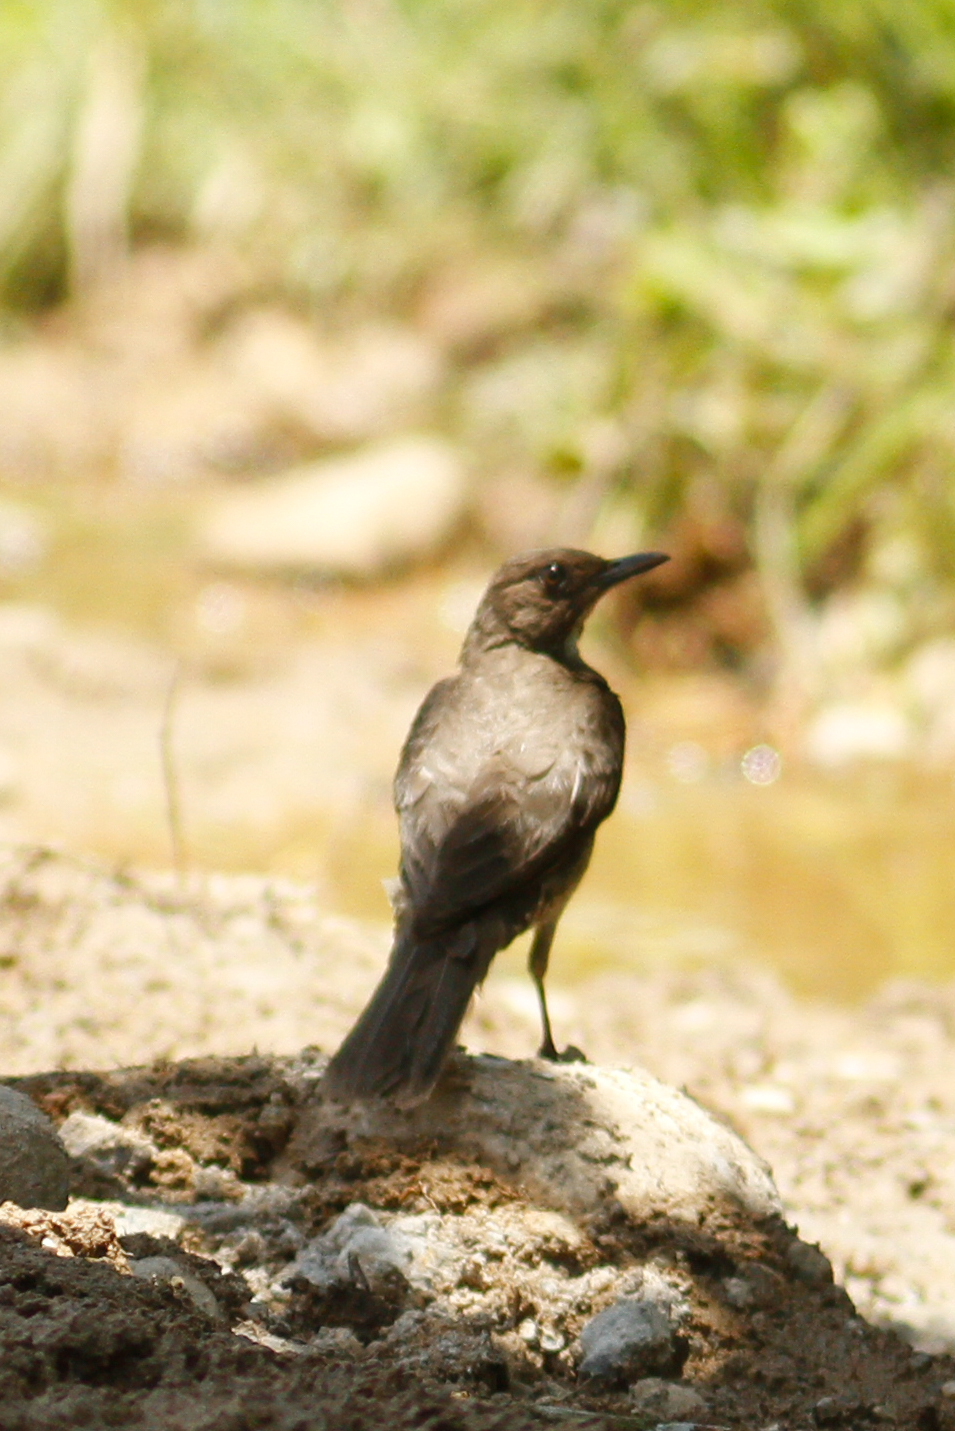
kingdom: Animalia
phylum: Chordata
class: Aves
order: Passeriformes
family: Turdidae
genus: Turdus
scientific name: Turdus ignobilis
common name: Black-billed thrush
